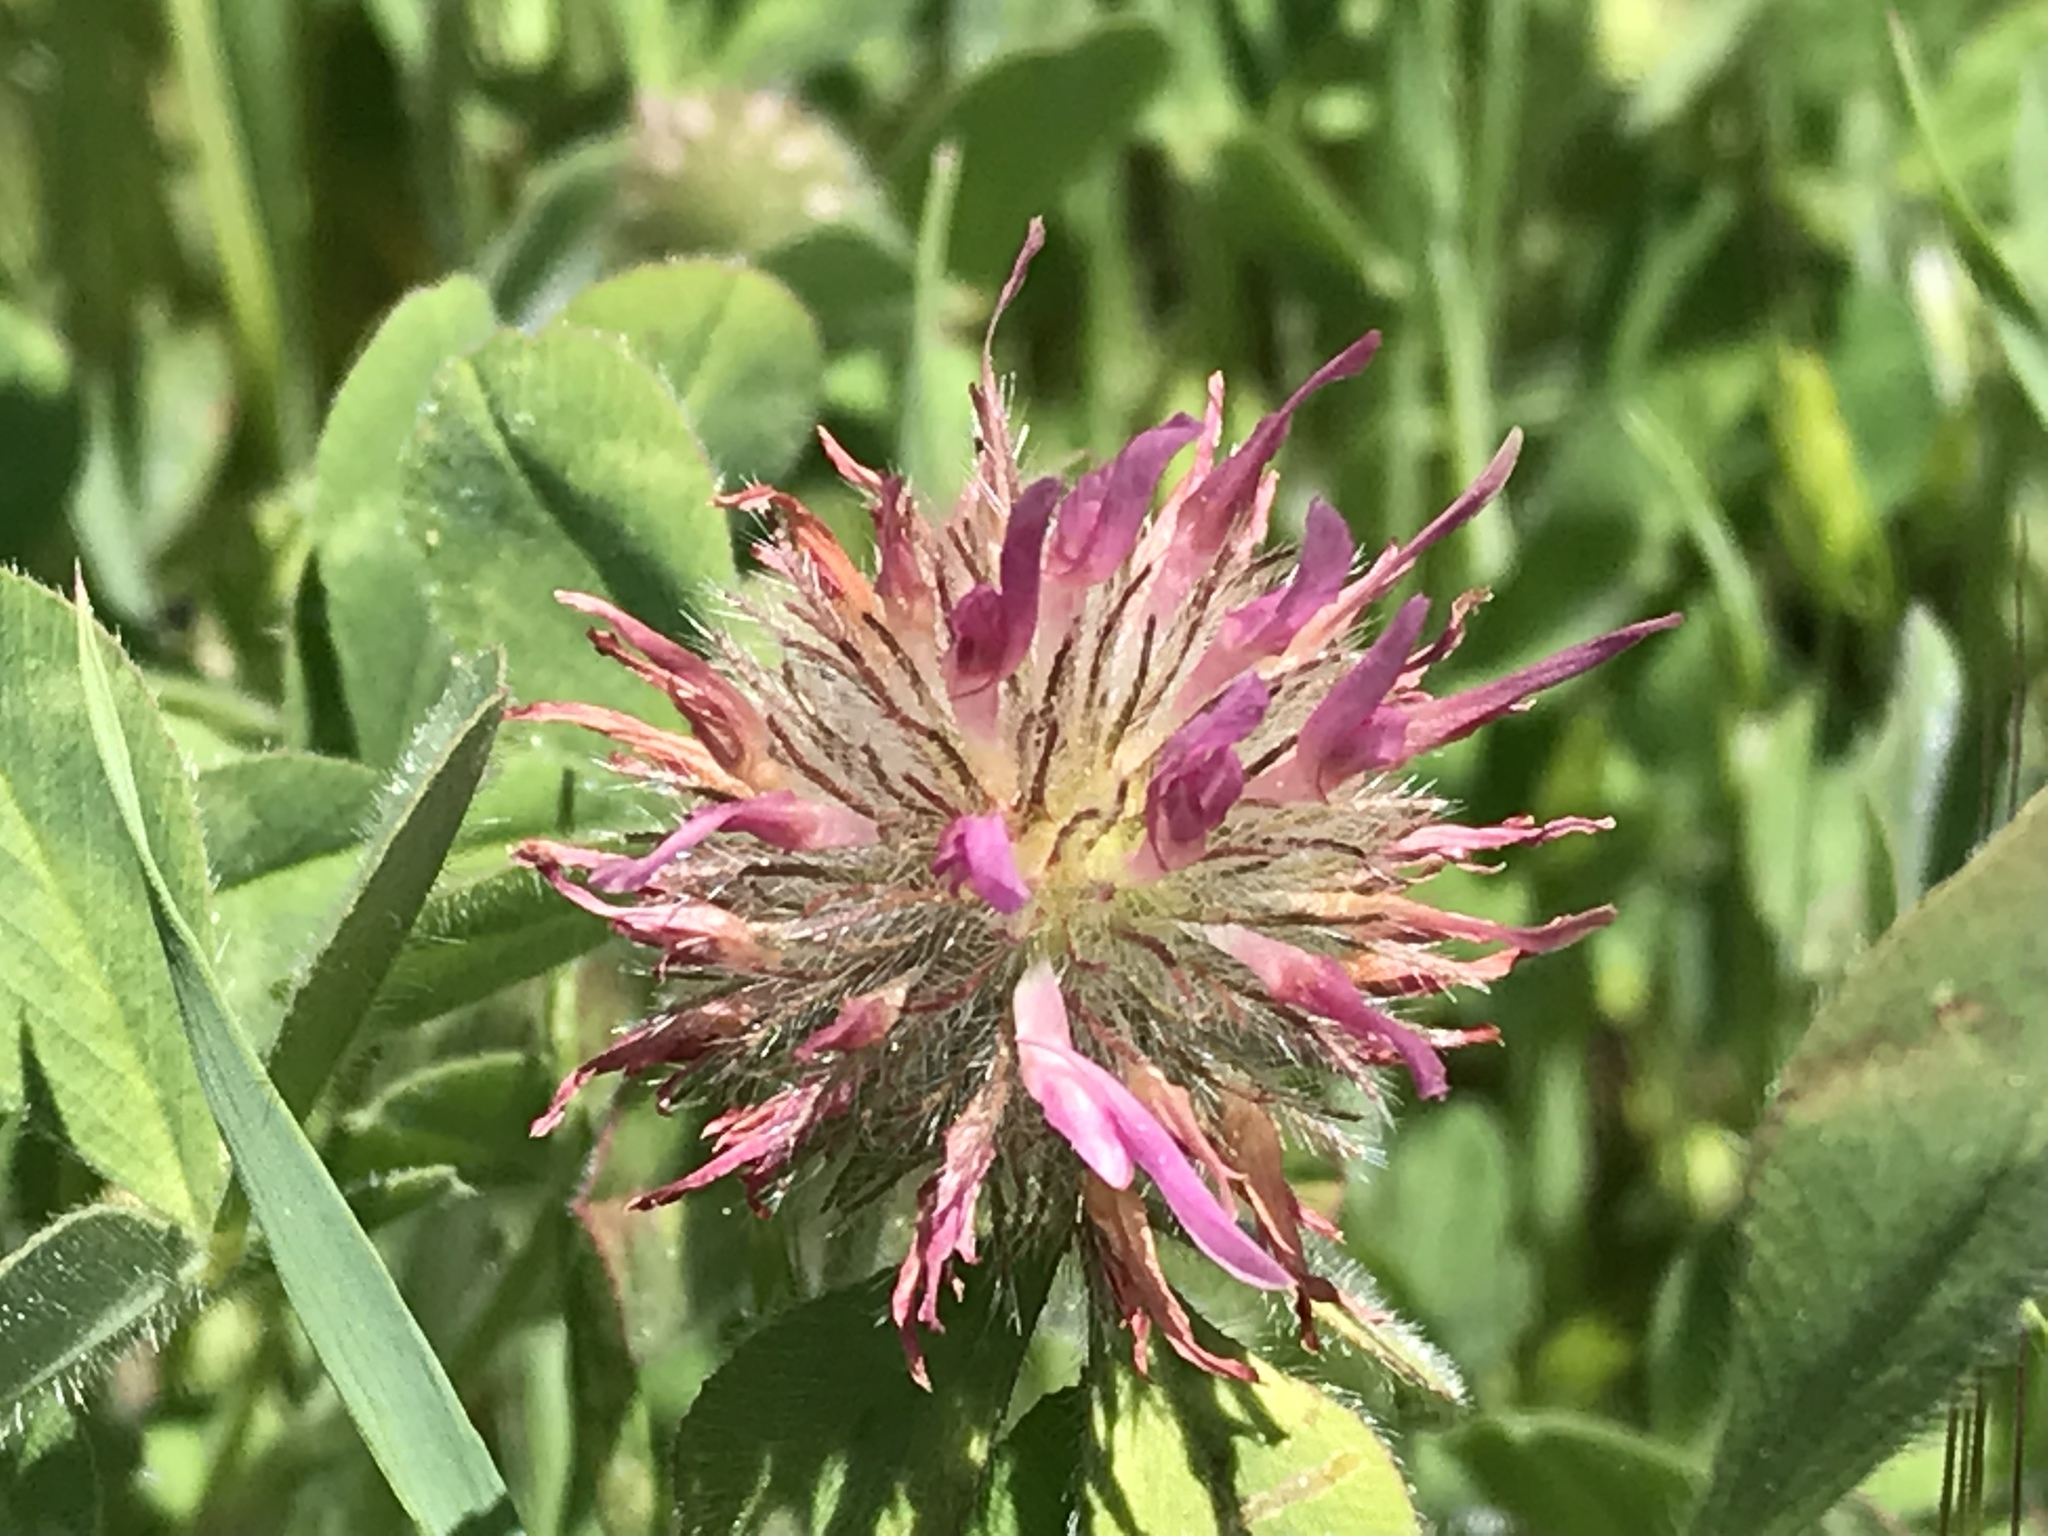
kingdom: Plantae
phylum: Tracheophyta
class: Magnoliopsida
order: Fabales
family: Fabaceae
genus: Trifolium
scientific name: Trifolium hirtum
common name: Rose clover
